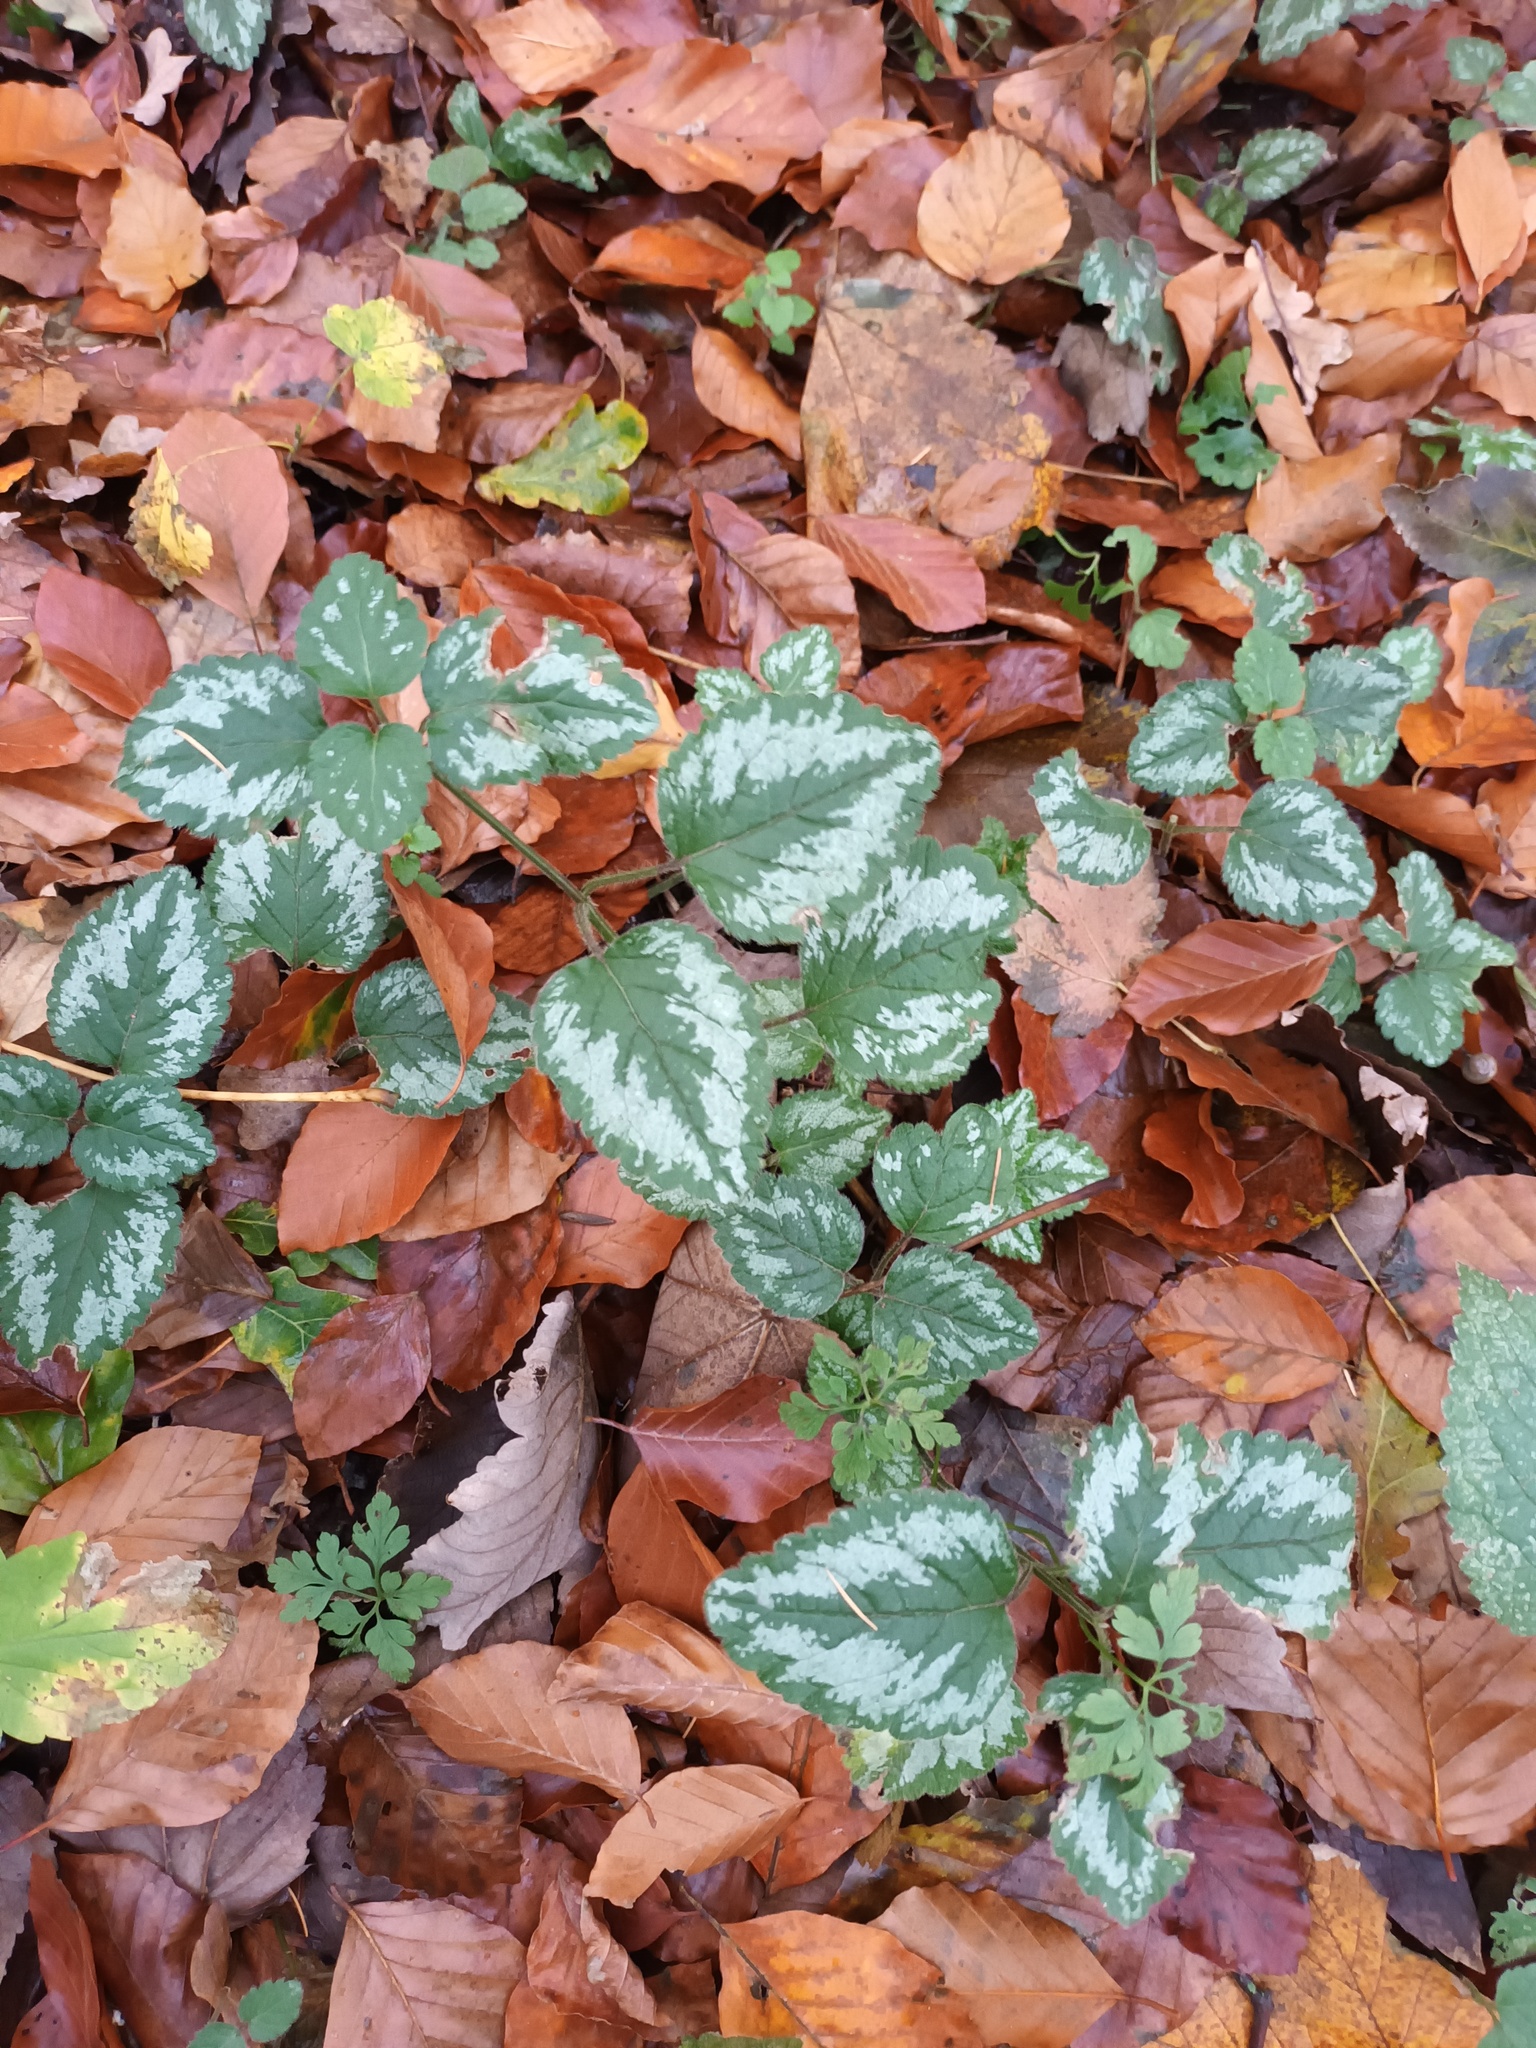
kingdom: Plantae
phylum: Tracheophyta
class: Magnoliopsida
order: Lamiales
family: Lamiaceae
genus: Lamium
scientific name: Lamium galeobdolon
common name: Yellow archangel
